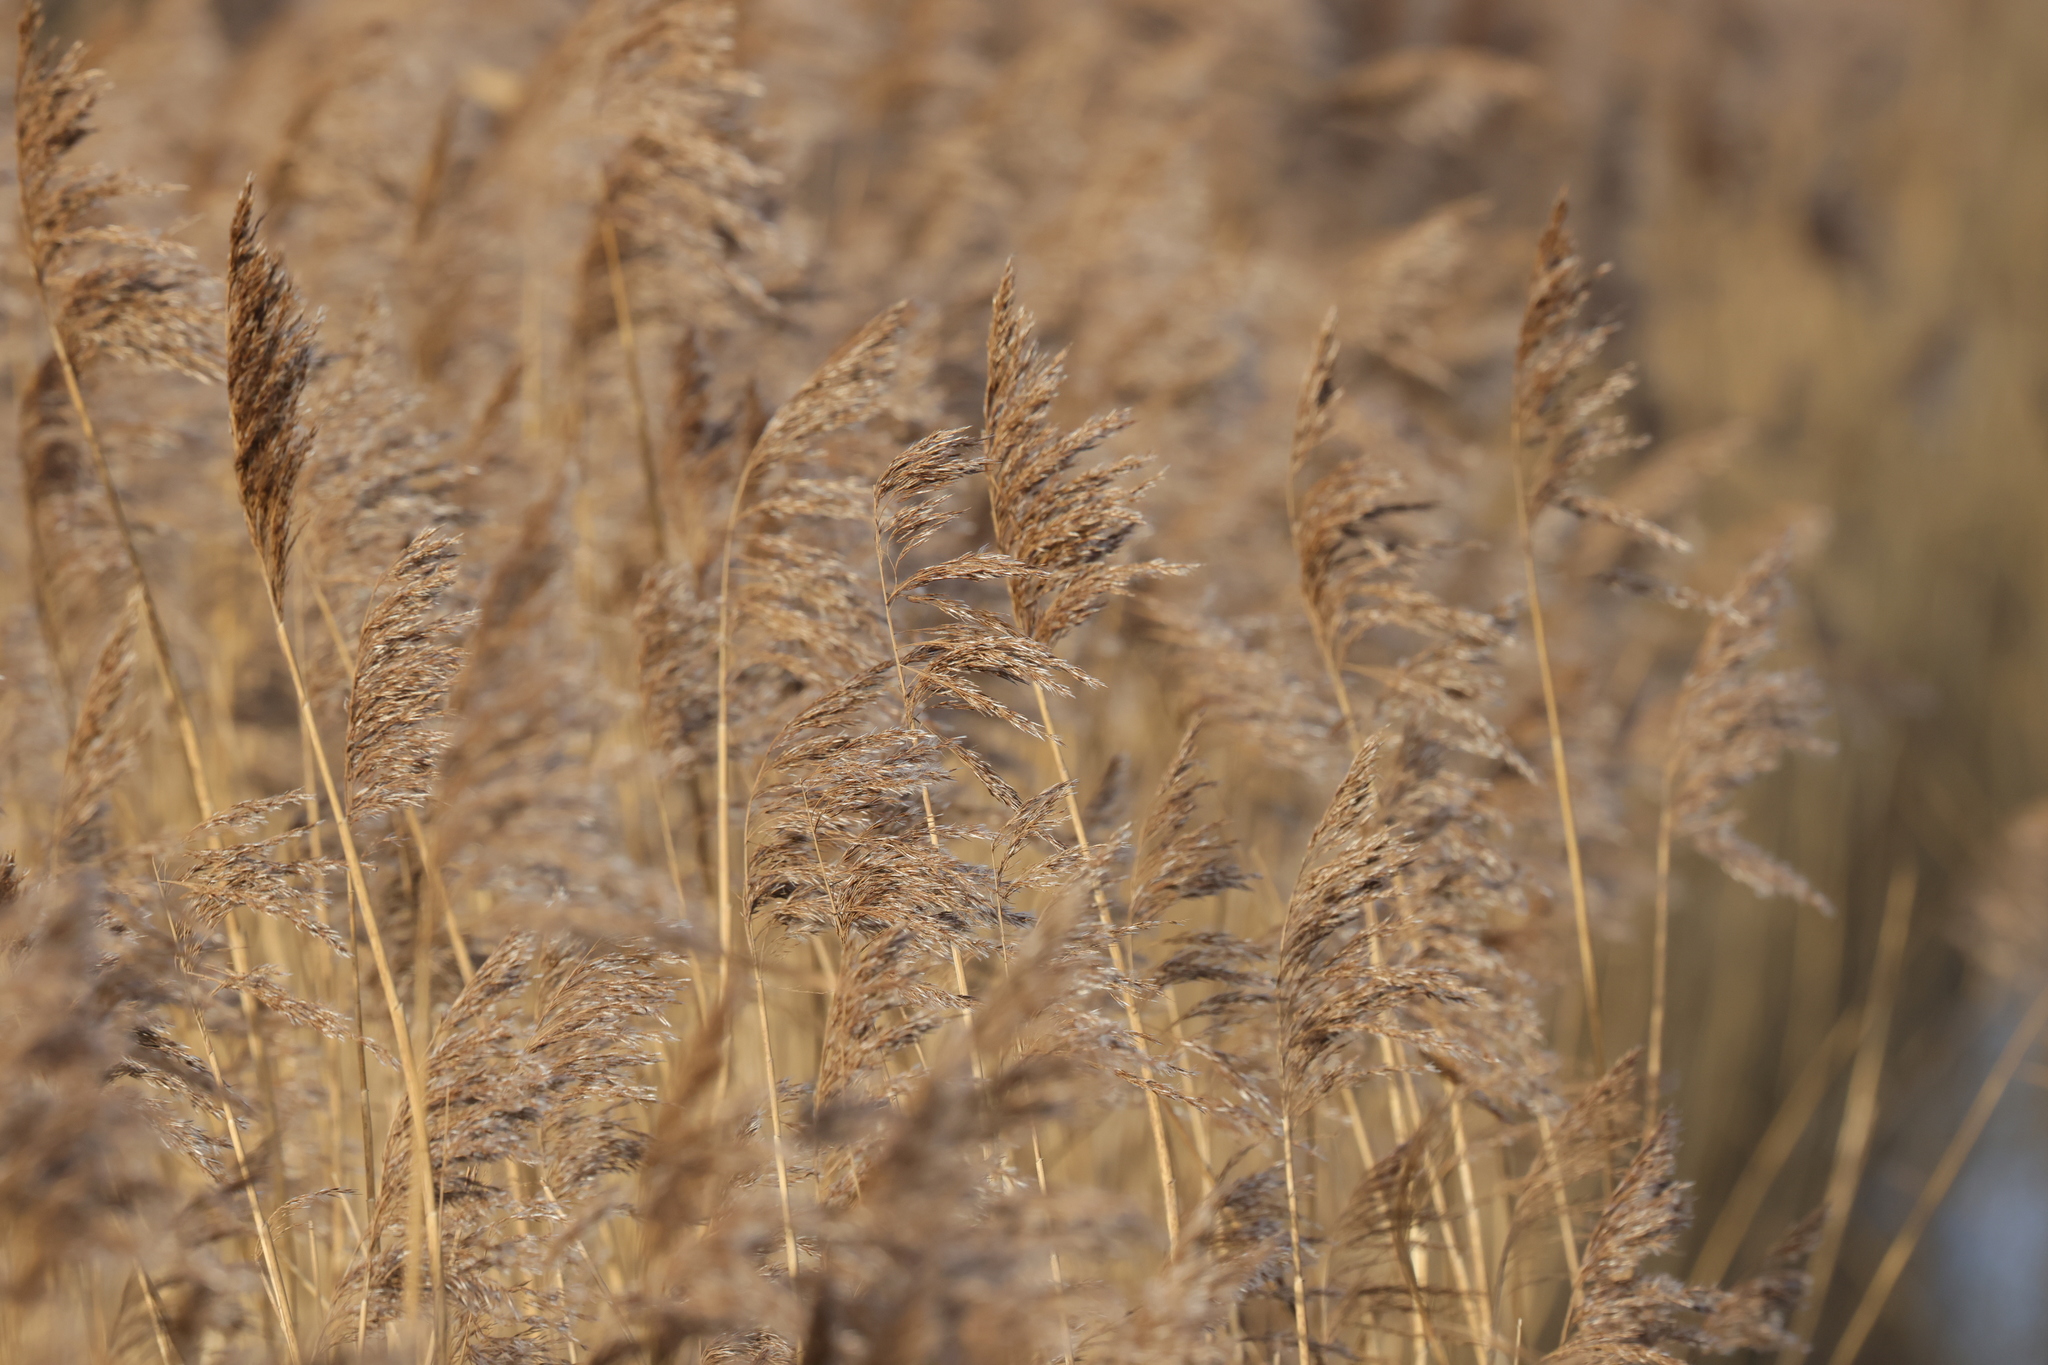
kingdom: Plantae
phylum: Tracheophyta
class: Liliopsida
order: Poales
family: Poaceae
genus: Phragmites
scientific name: Phragmites australis
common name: Common reed
